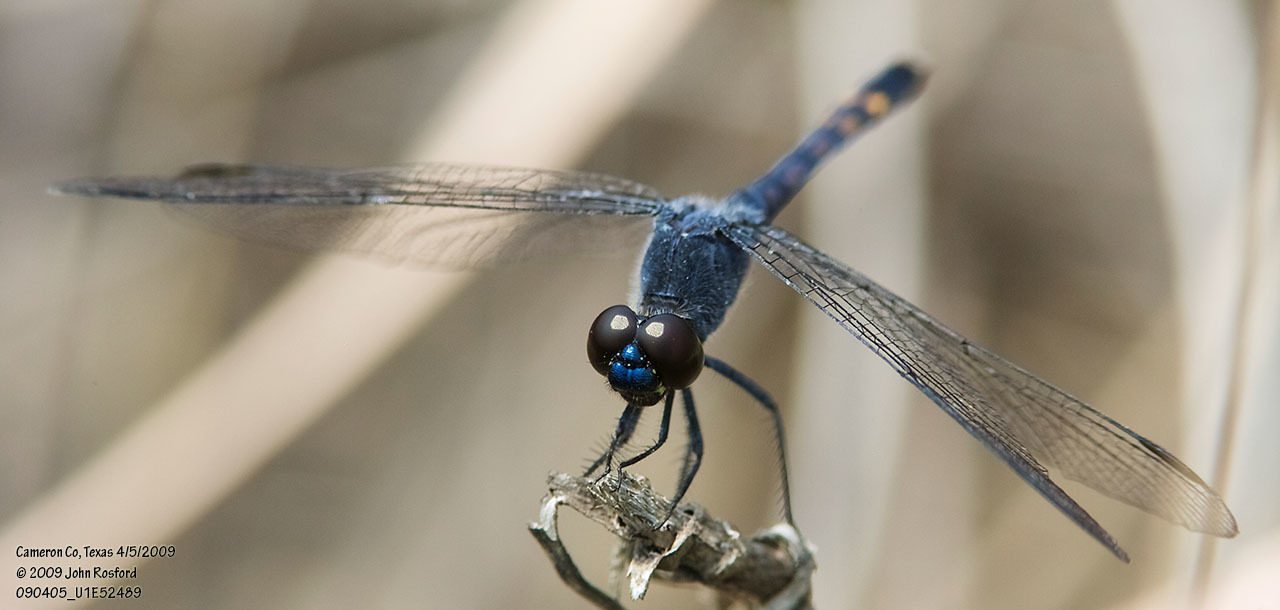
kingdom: Animalia
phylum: Arthropoda
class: Insecta
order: Odonata
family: Libellulidae
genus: Erythrodiplax
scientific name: Erythrodiplax berenice
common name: Seaside dragonlet
